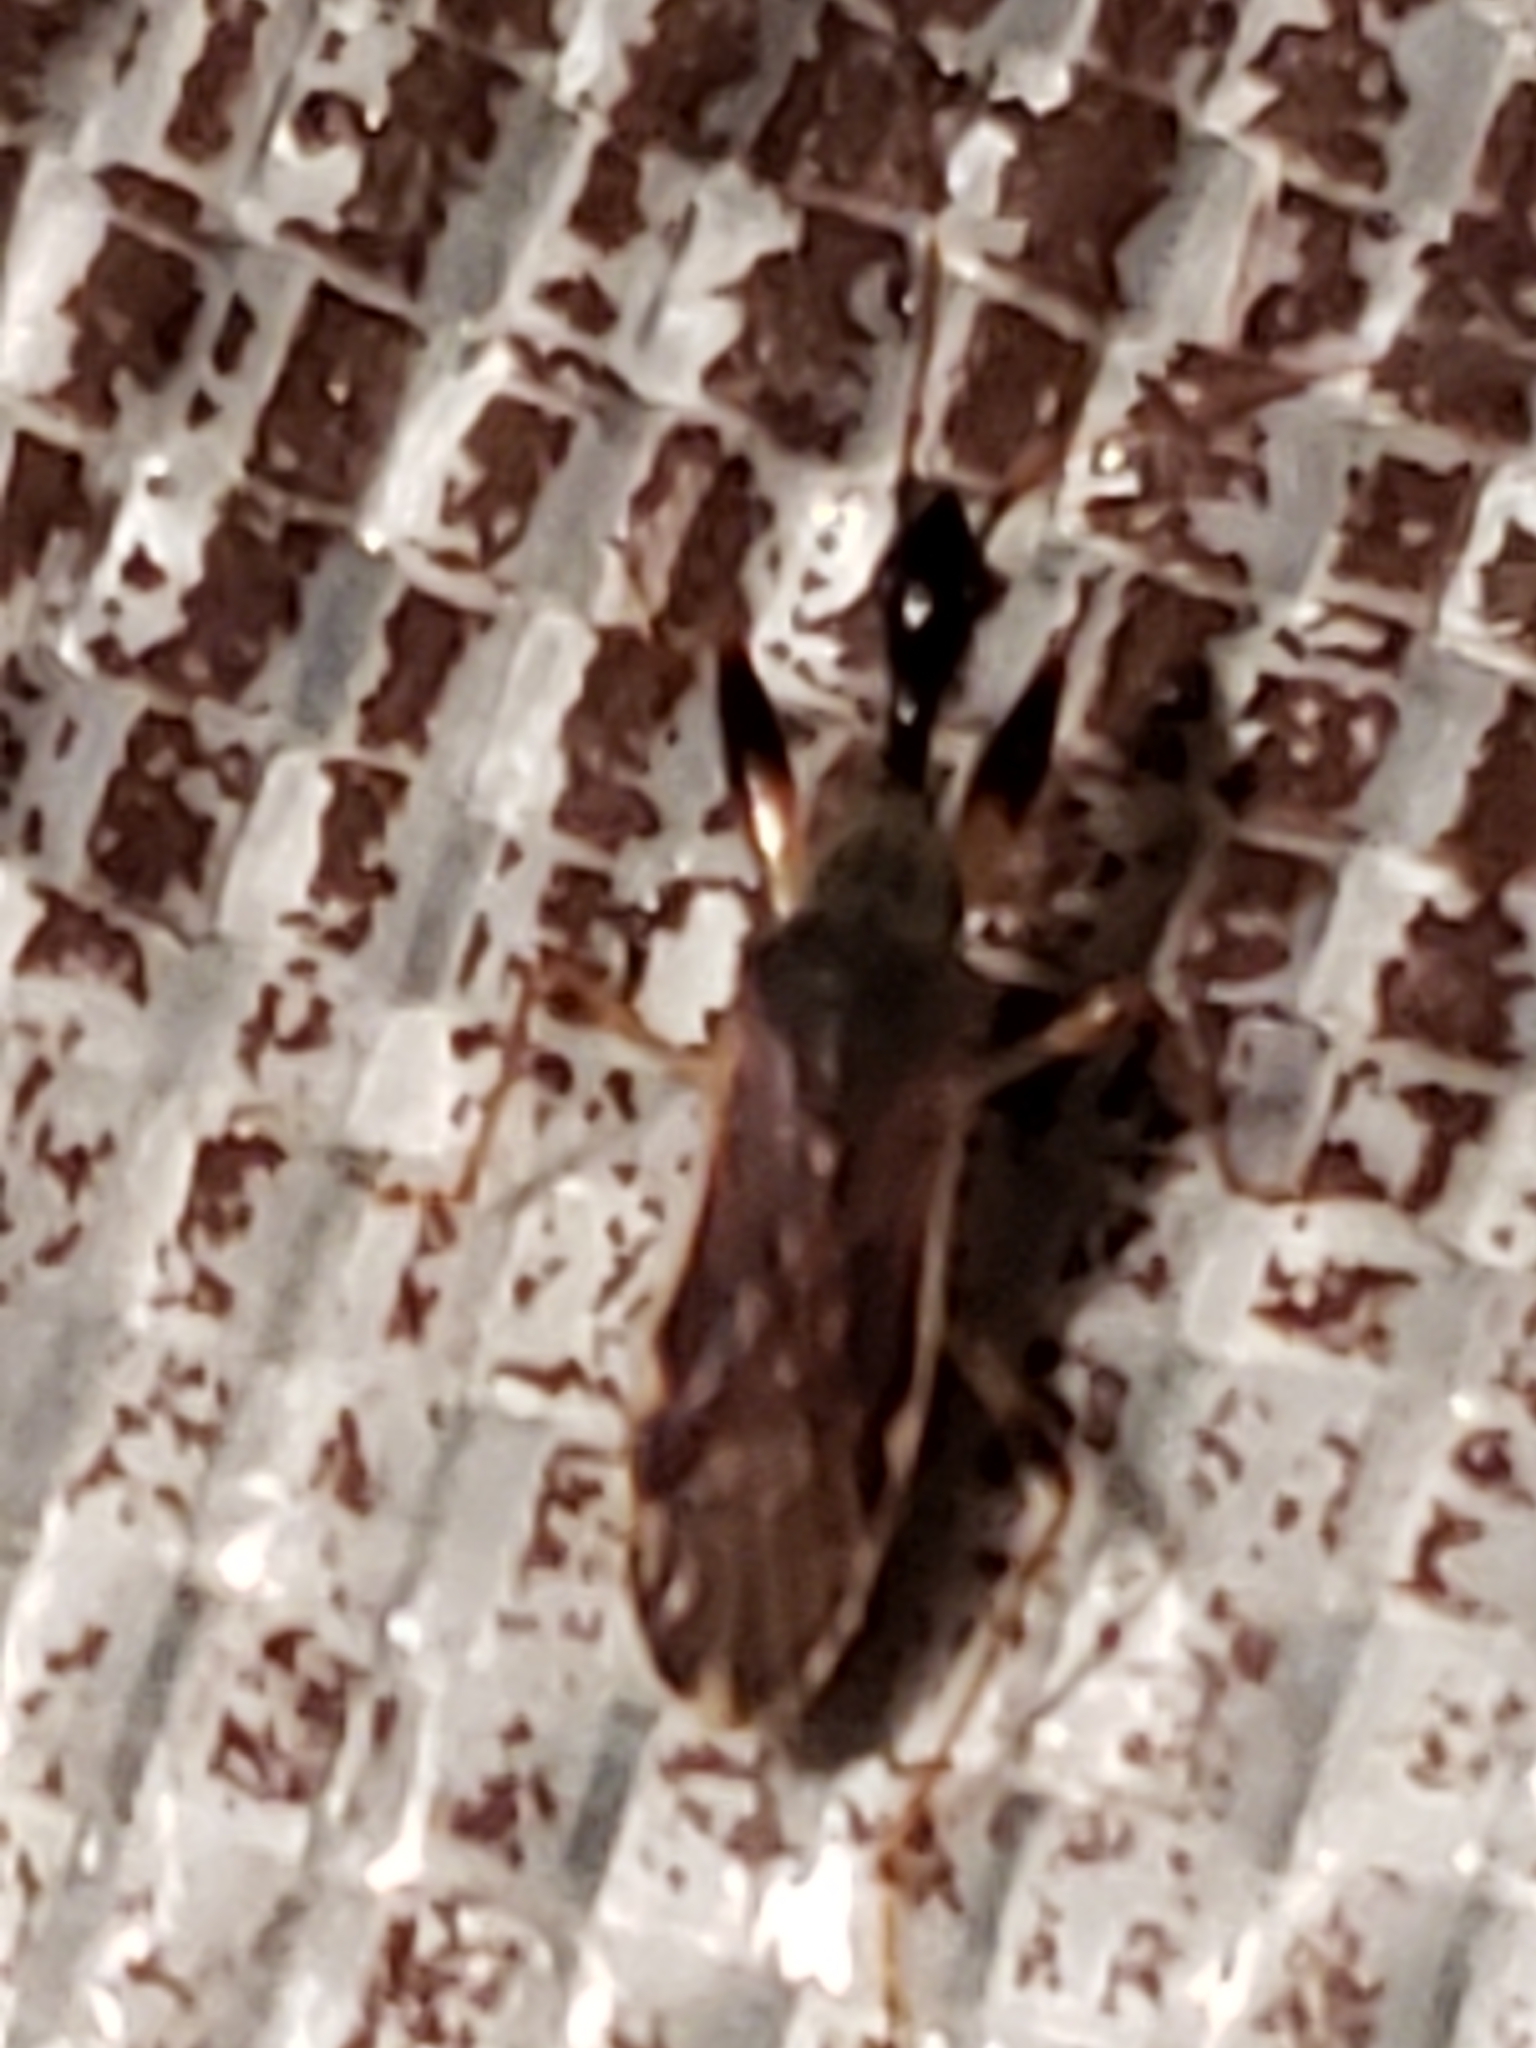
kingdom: Animalia
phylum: Arthropoda
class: Insecta
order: Hemiptera
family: Rhyparochromidae
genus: Myodocha
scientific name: Myodocha serripes
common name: Long-necked seed bug
